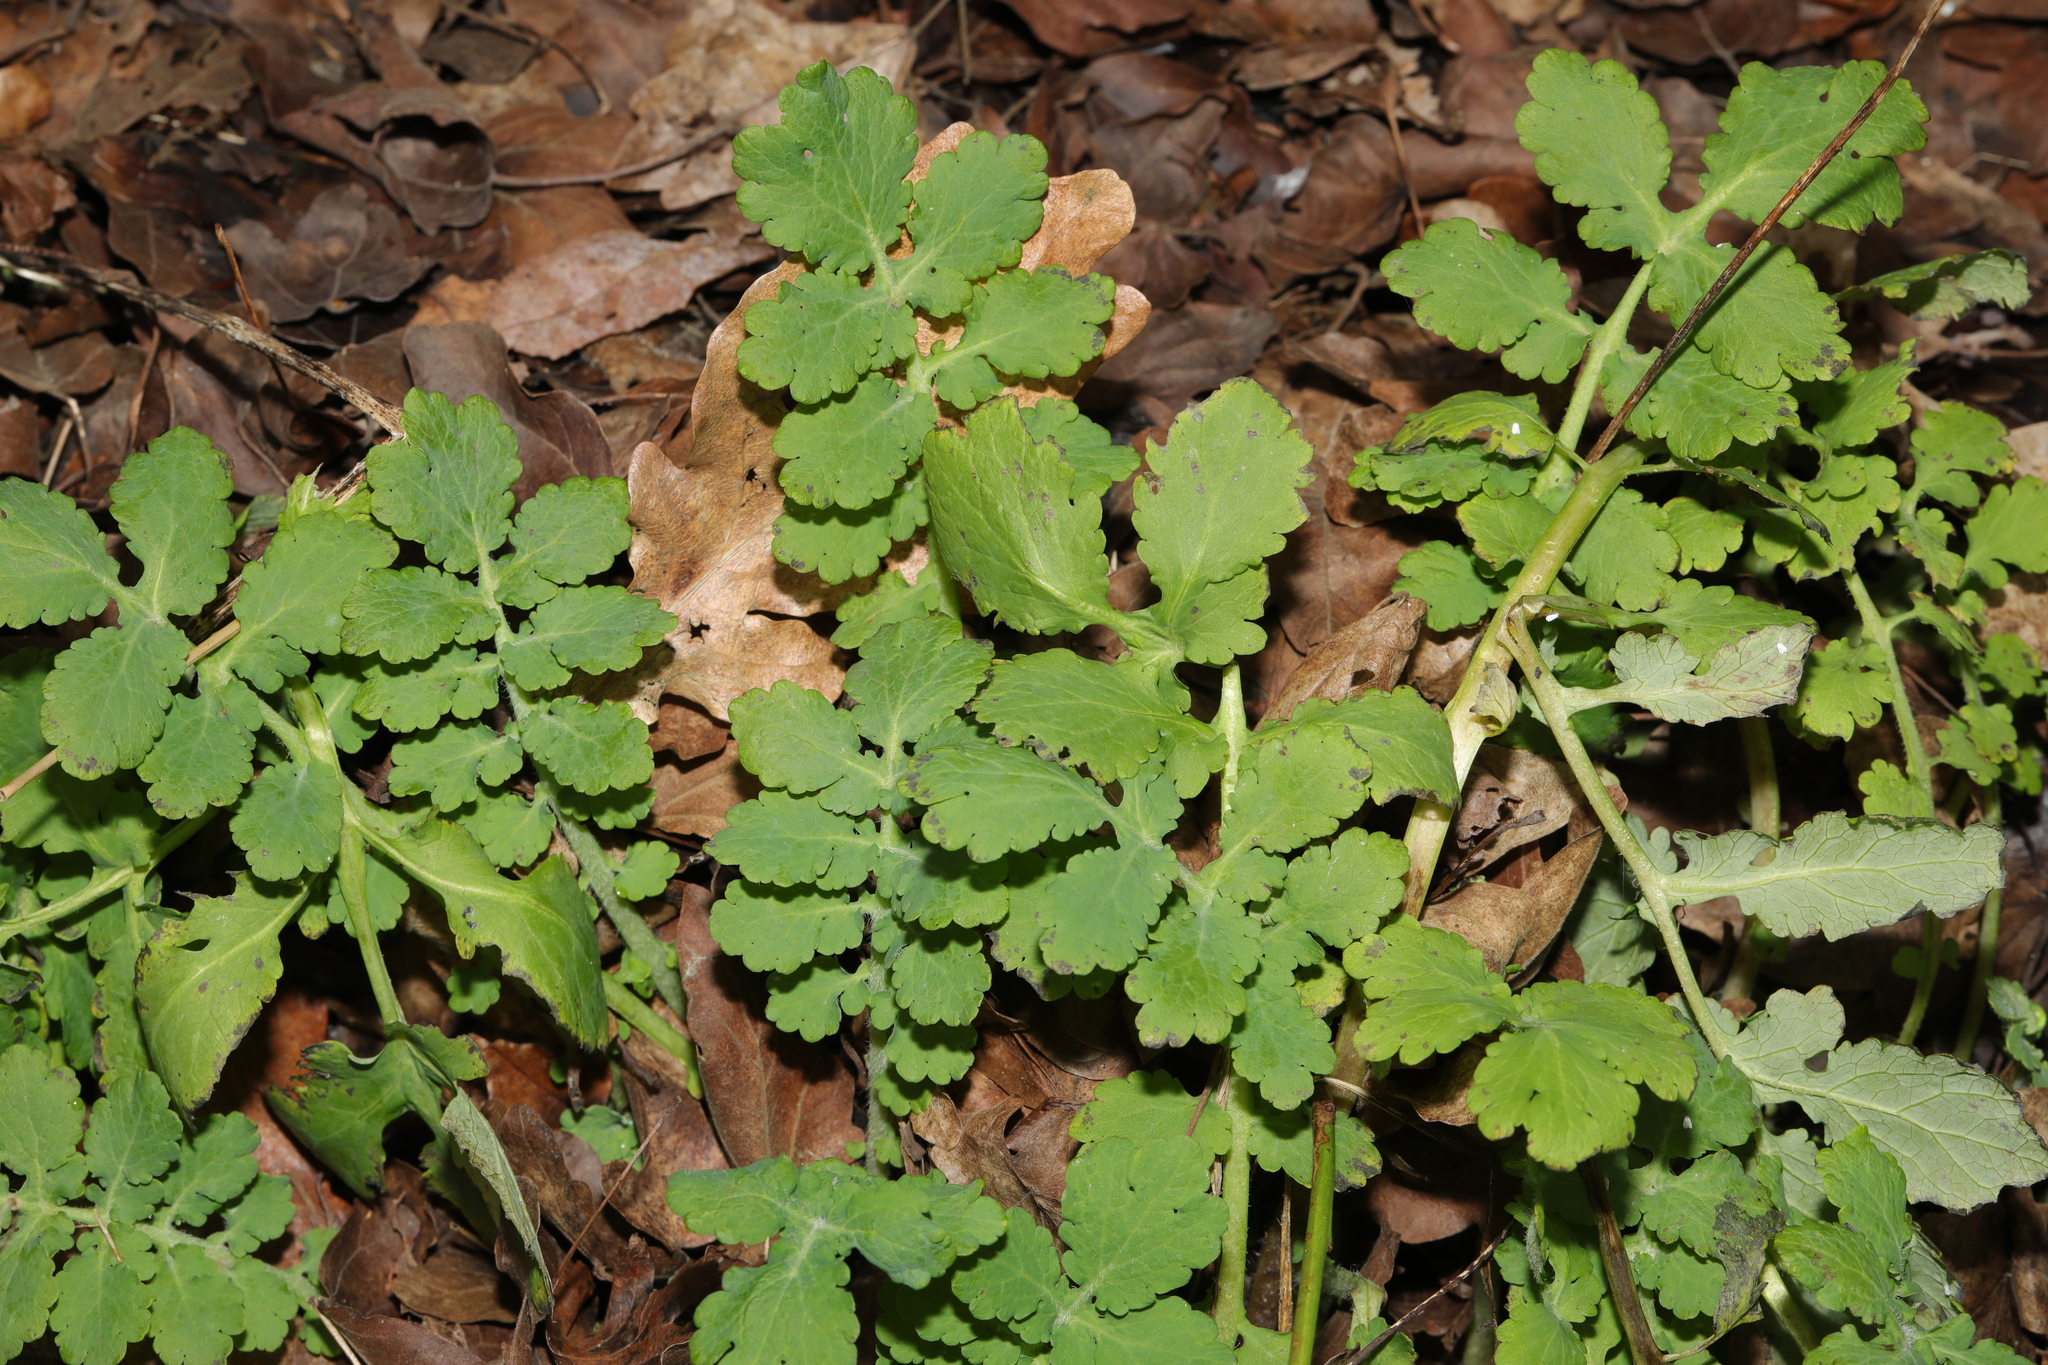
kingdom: Plantae
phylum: Tracheophyta
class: Magnoliopsida
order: Ranunculales
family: Papaveraceae
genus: Chelidonium
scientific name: Chelidonium majus
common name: Greater celandine
